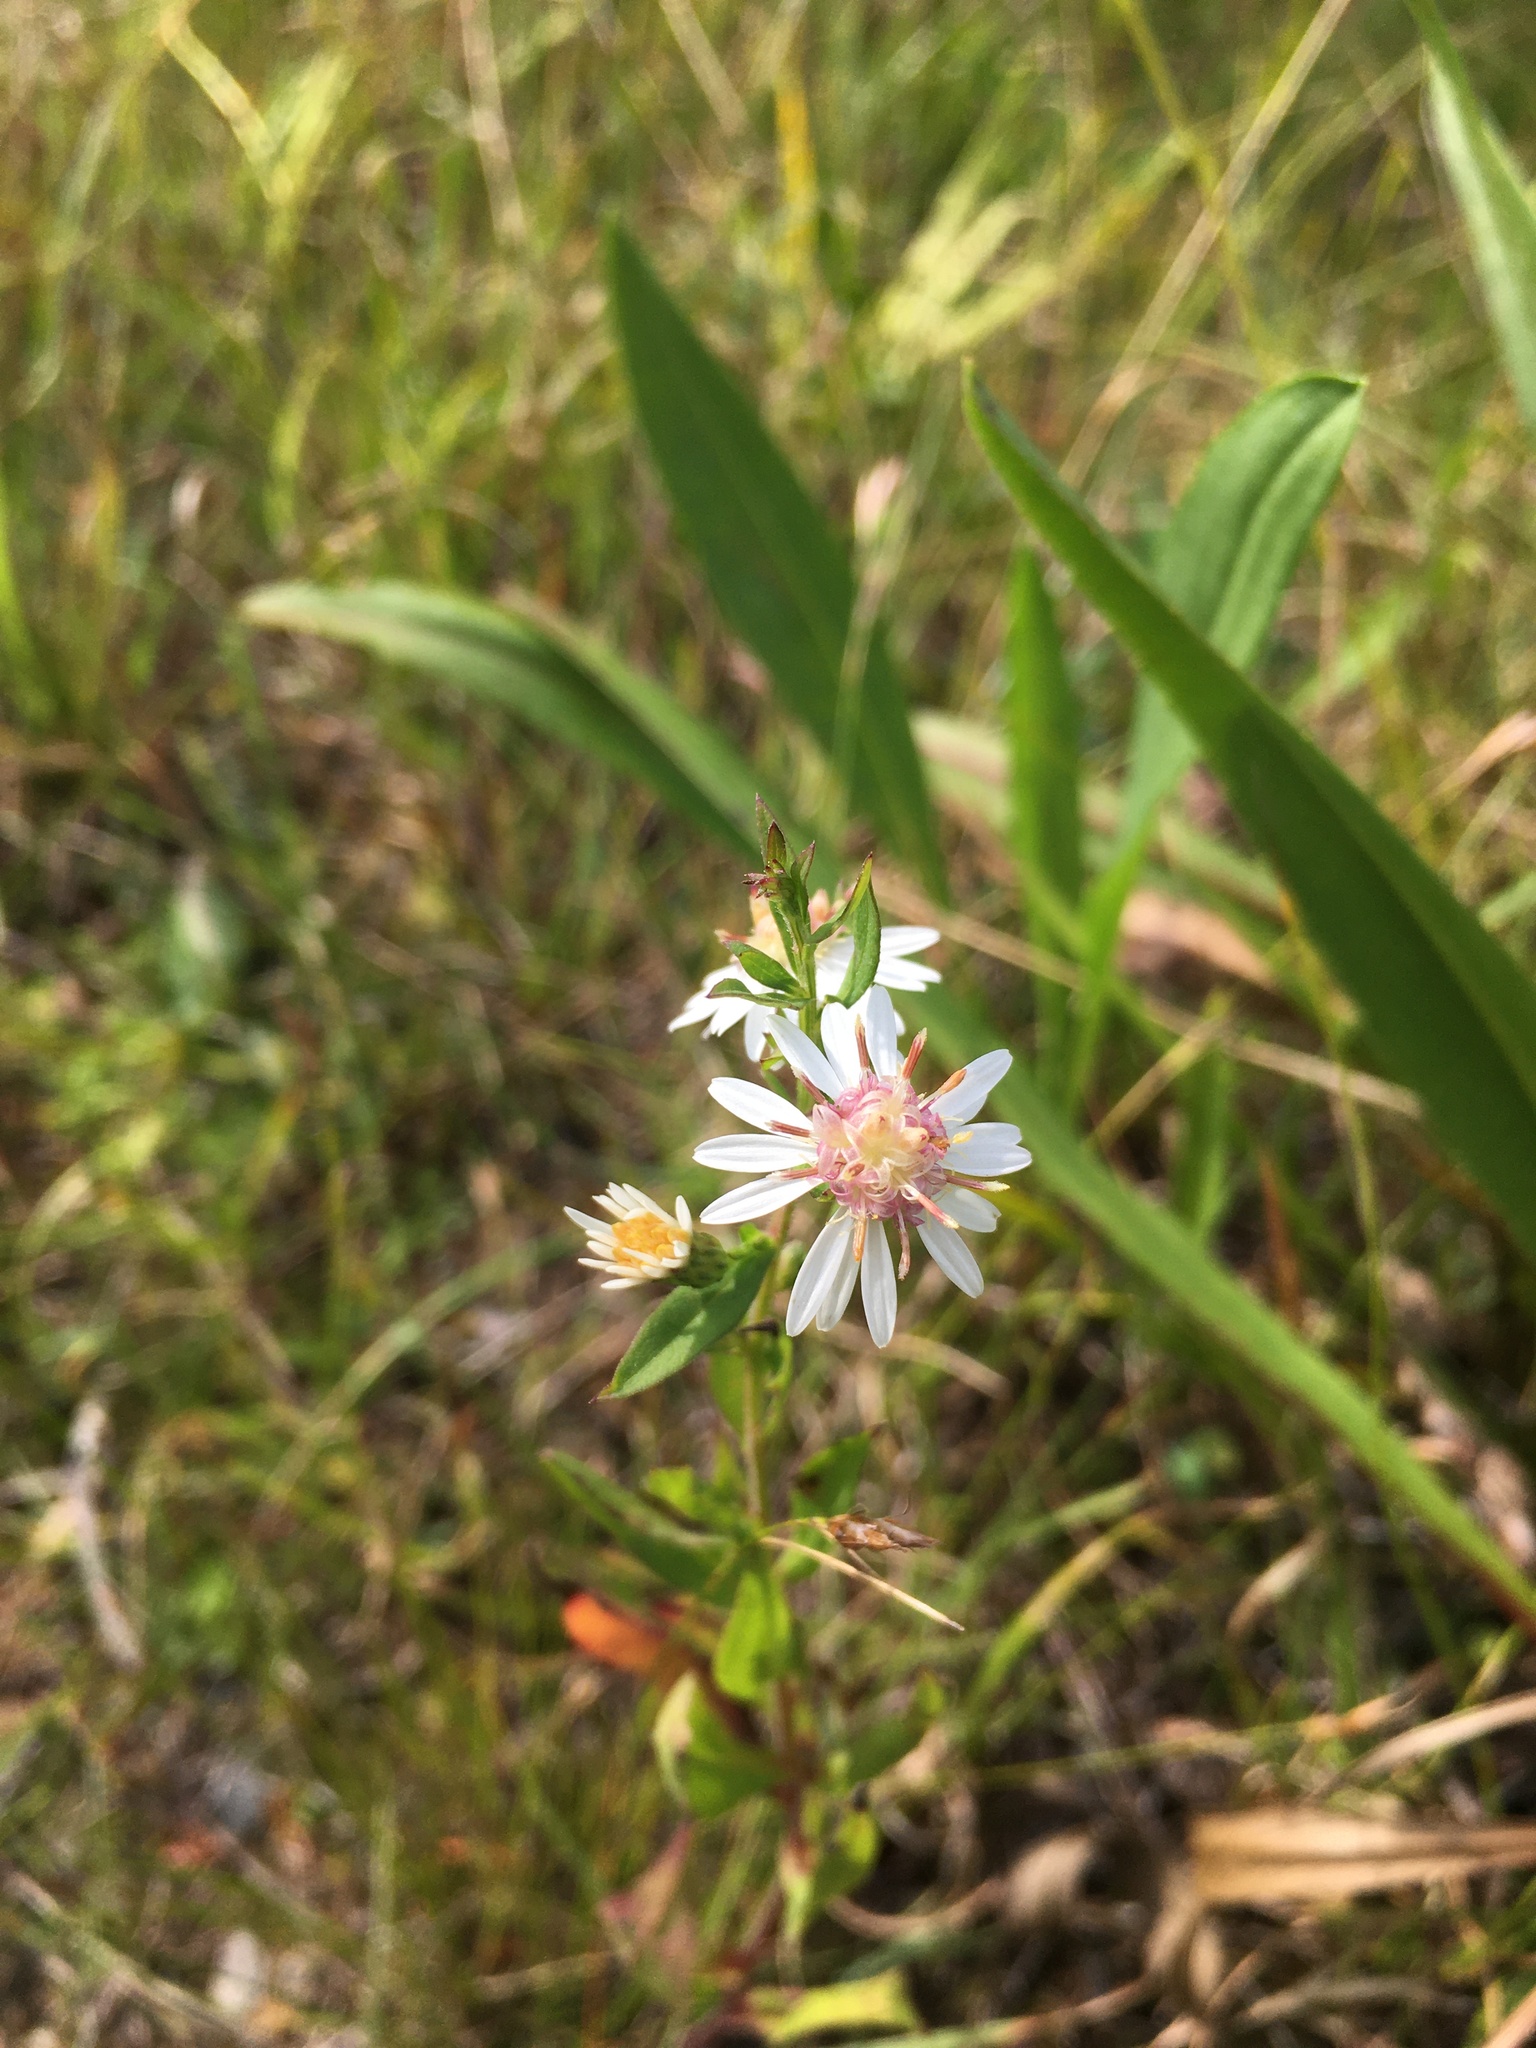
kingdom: Plantae
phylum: Tracheophyta
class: Magnoliopsida
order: Asterales
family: Asteraceae
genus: Symphyotrichum
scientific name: Symphyotrichum lateriflorum
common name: Calico aster
